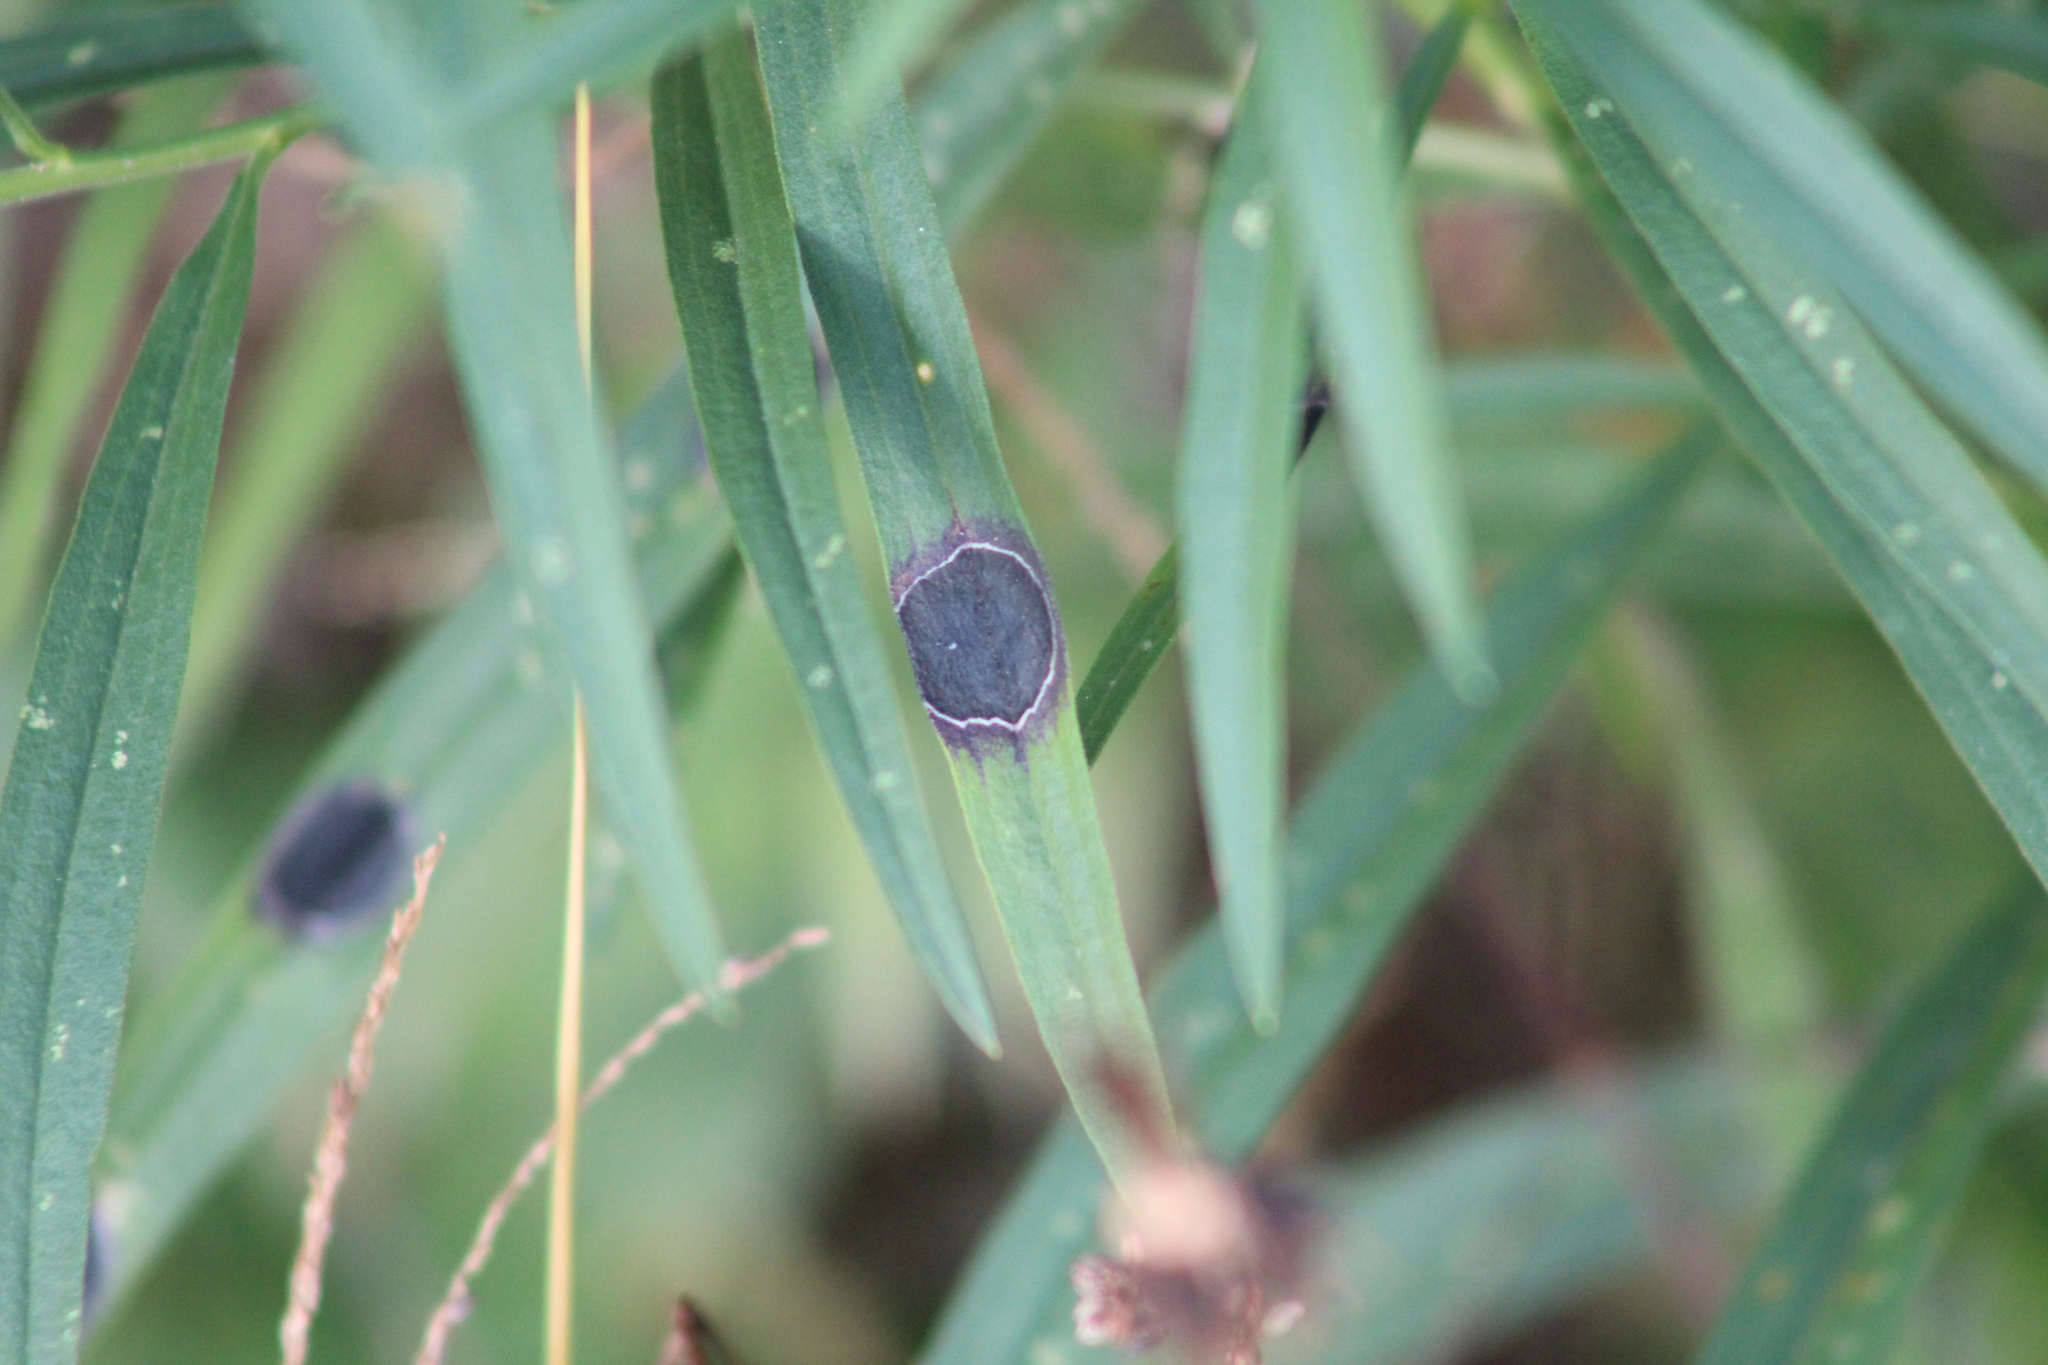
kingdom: Animalia
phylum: Arthropoda
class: Insecta
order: Diptera
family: Cecidomyiidae
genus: Asteromyia
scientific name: Asteromyia euthamiae
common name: Euthamia leaf gall midge
